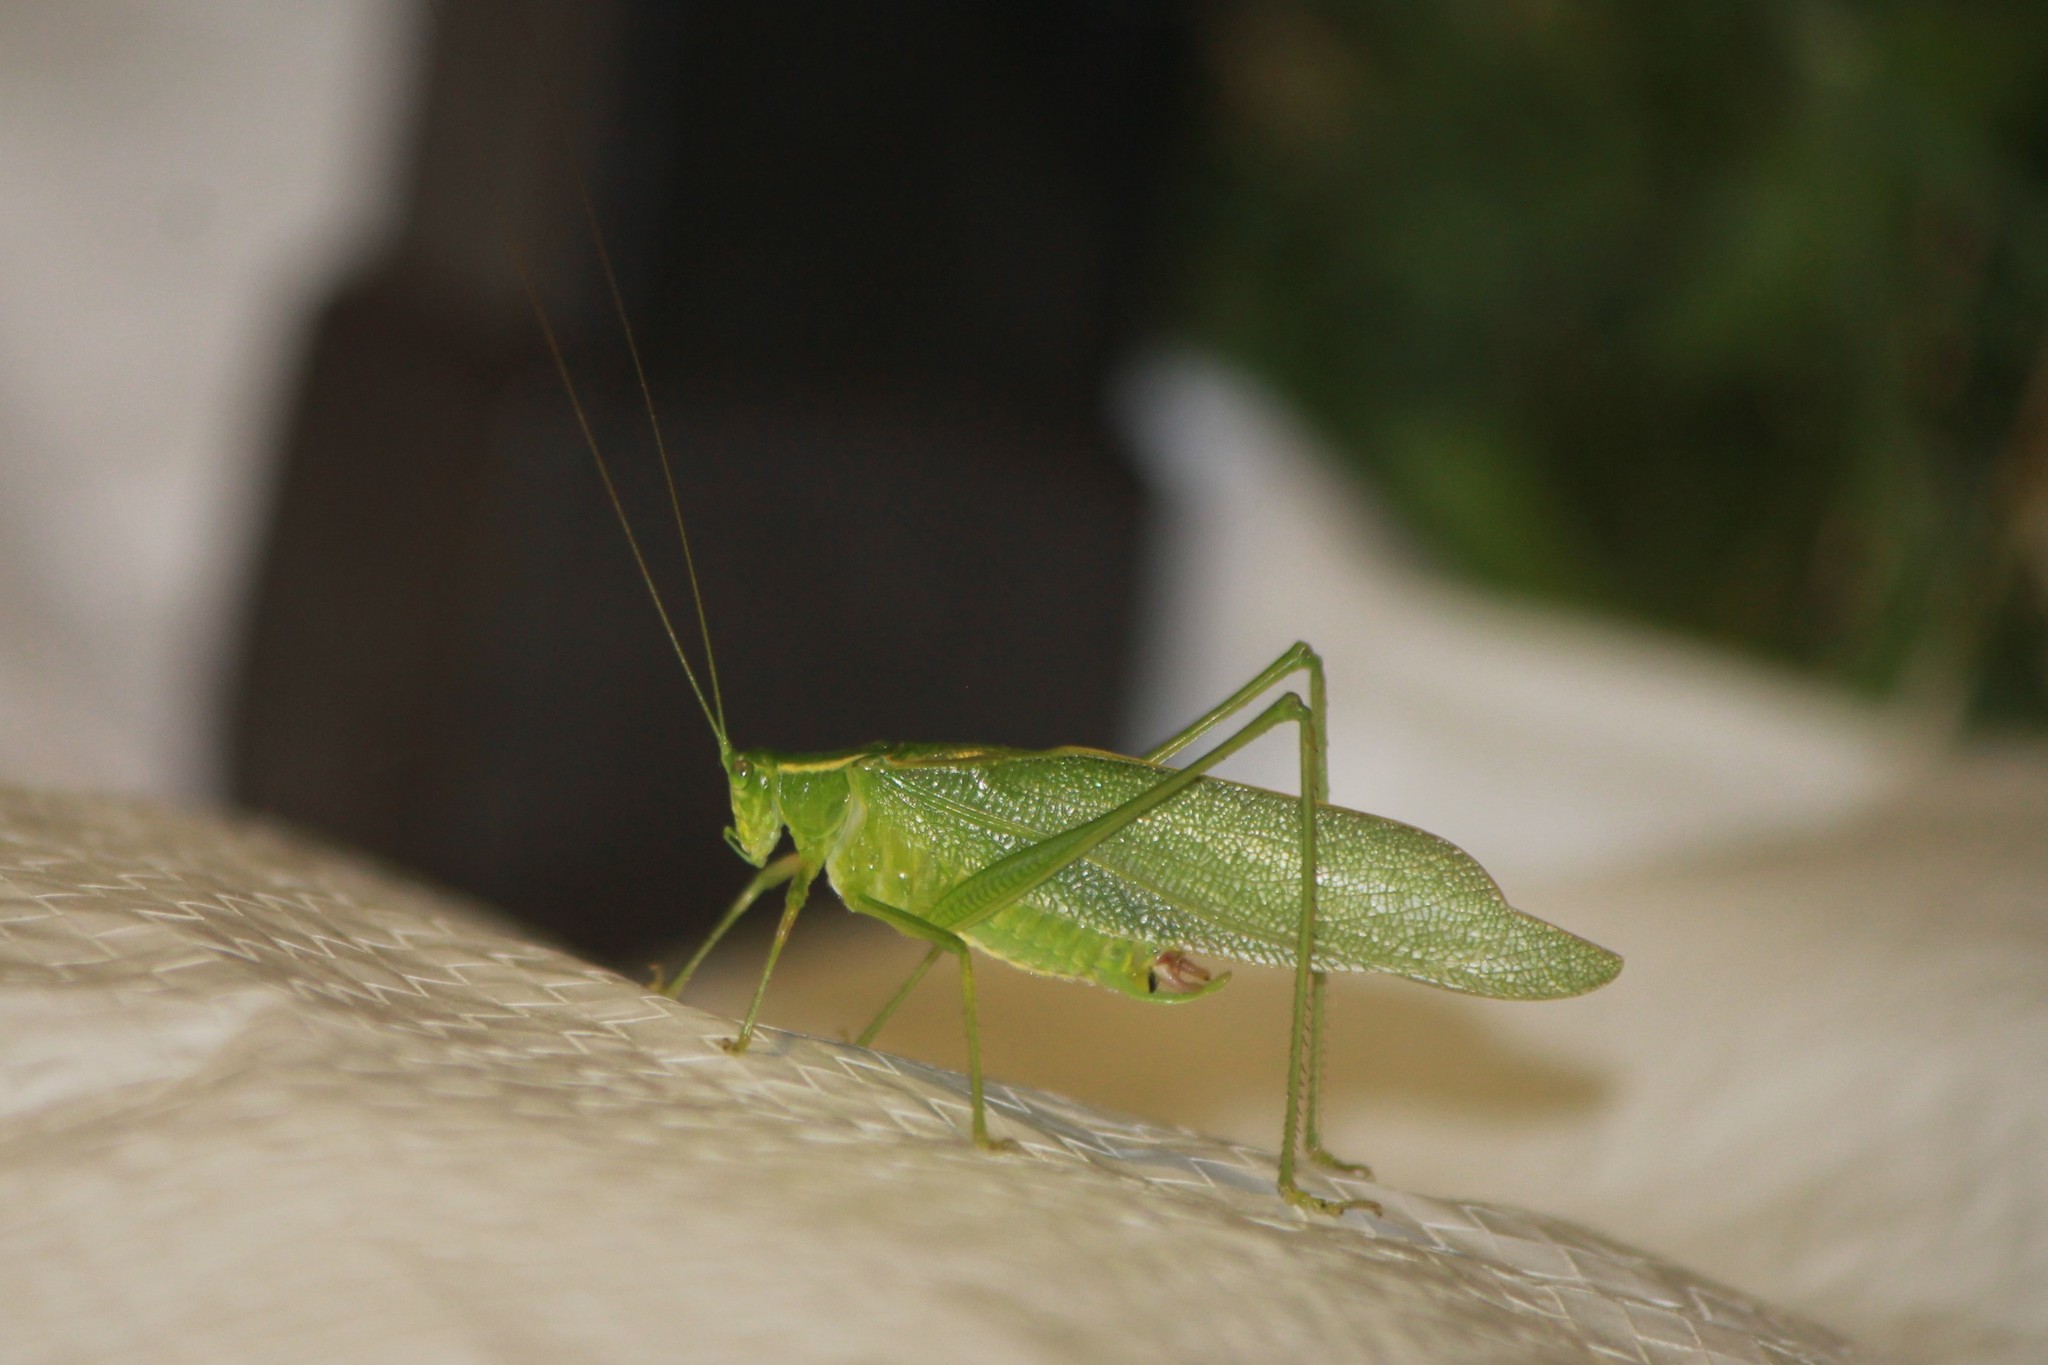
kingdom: Animalia
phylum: Arthropoda
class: Insecta
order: Orthoptera
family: Tettigoniidae
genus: Scudderia
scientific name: Scudderia septentrionalis
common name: Northern bush-katydid
